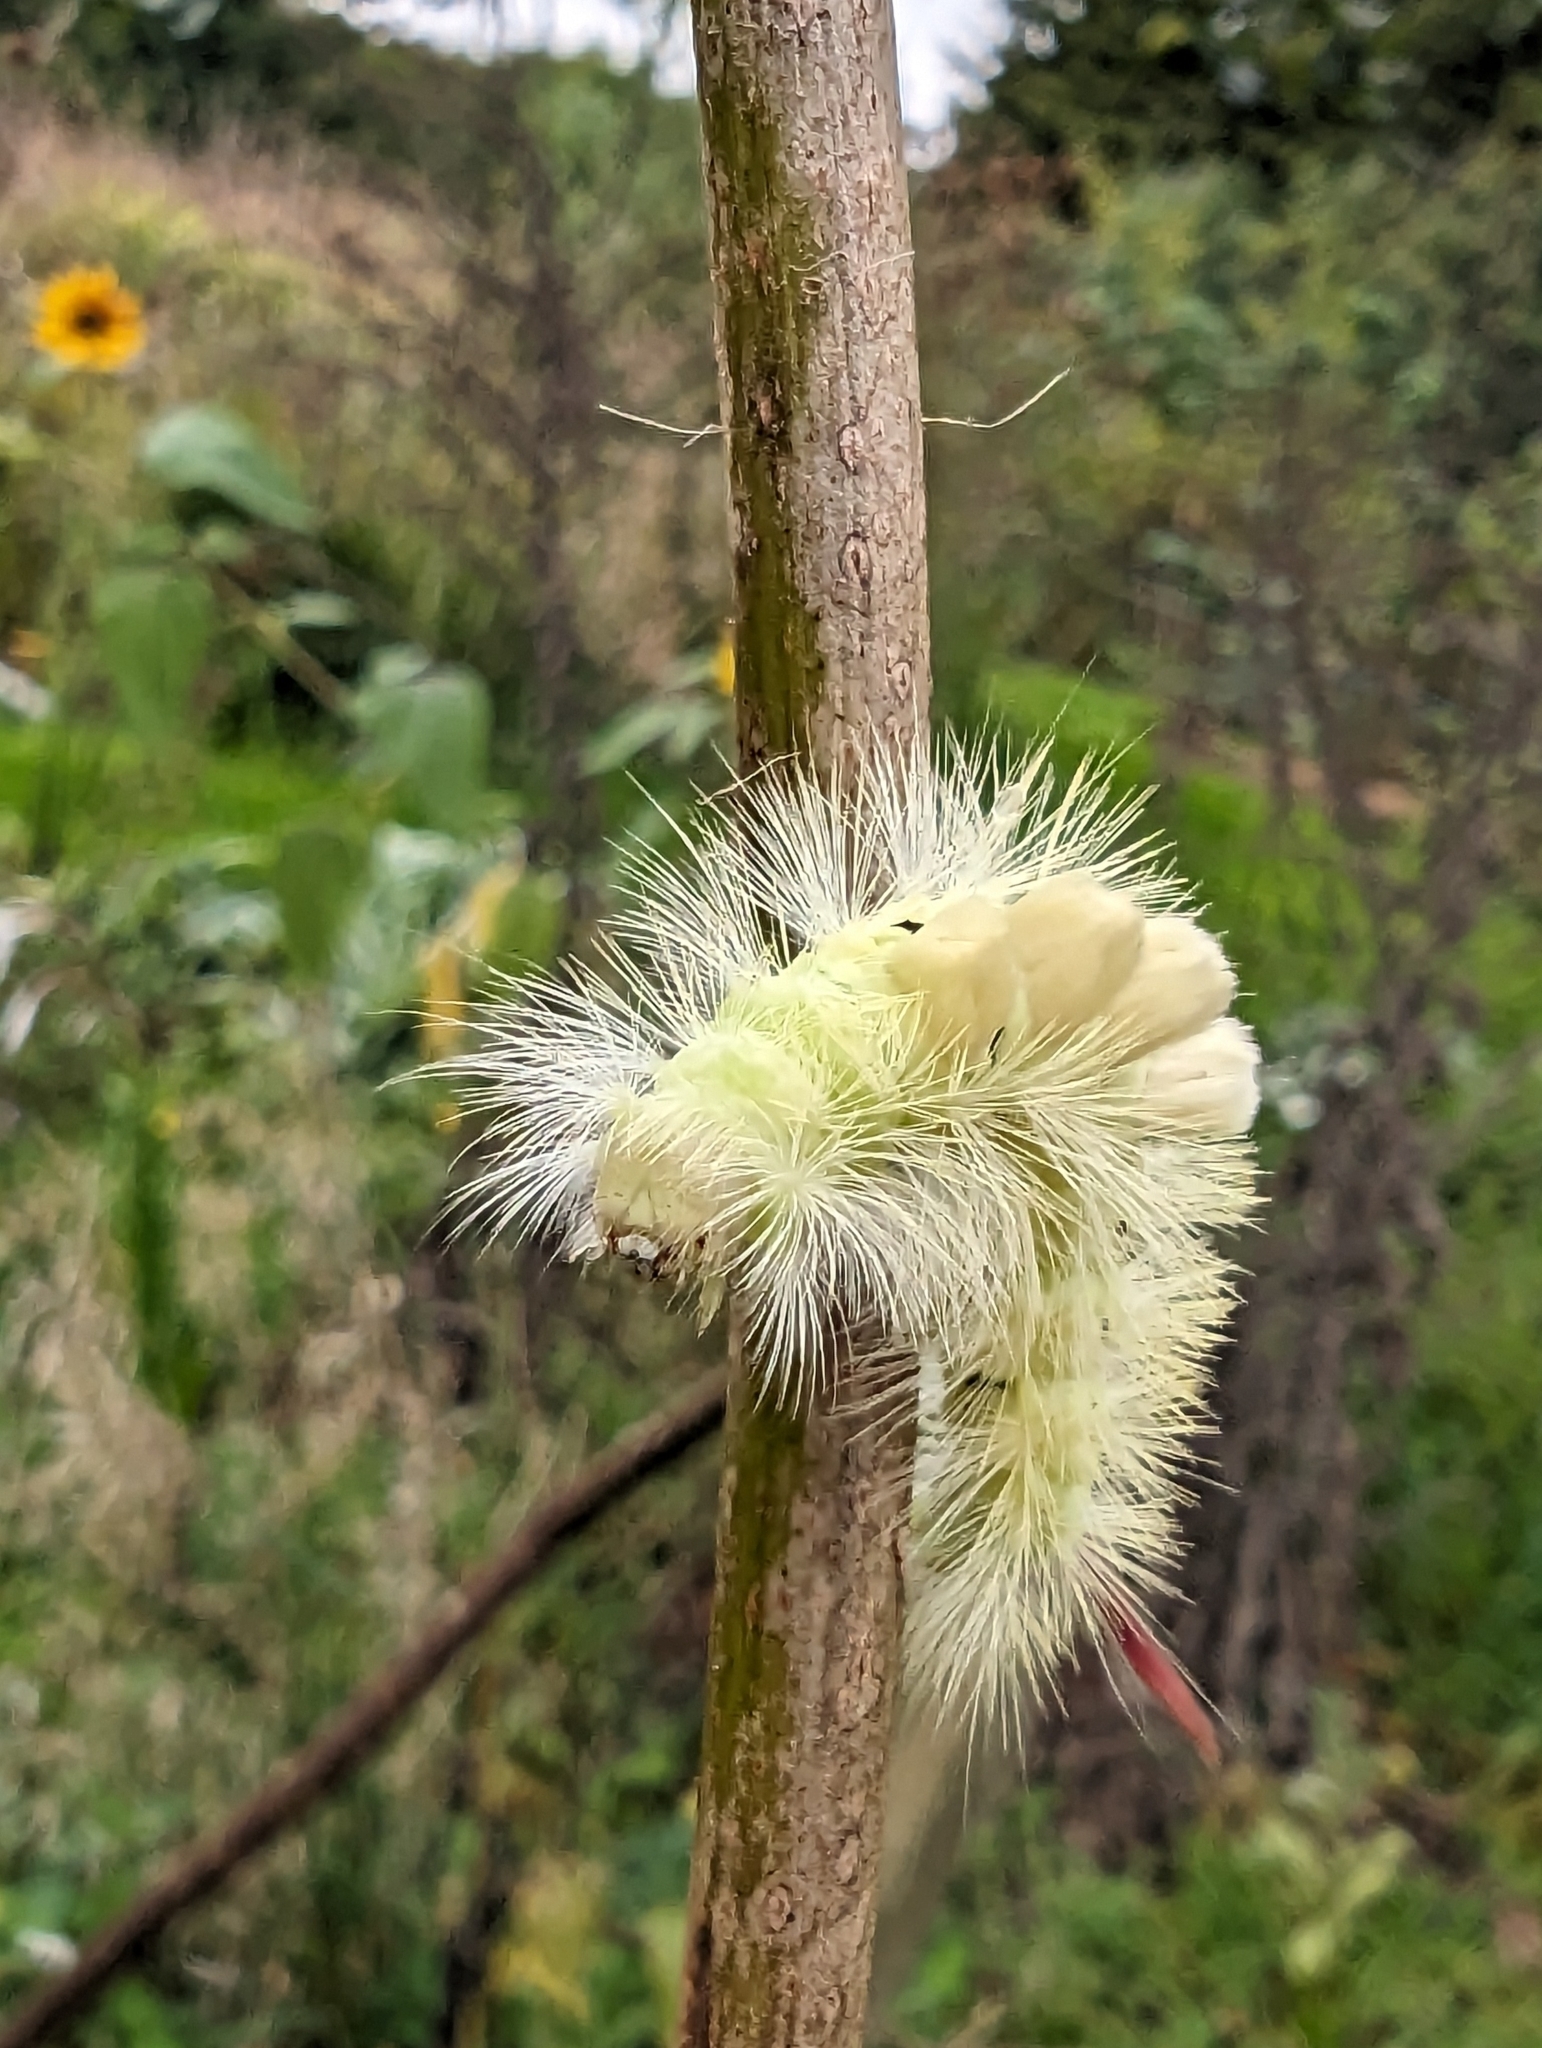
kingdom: Animalia
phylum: Arthropoda
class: Insecta
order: Lepidoptera
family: Erebidae
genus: Calliteara
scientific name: Calliteara pudibunda
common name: Pale tussock
